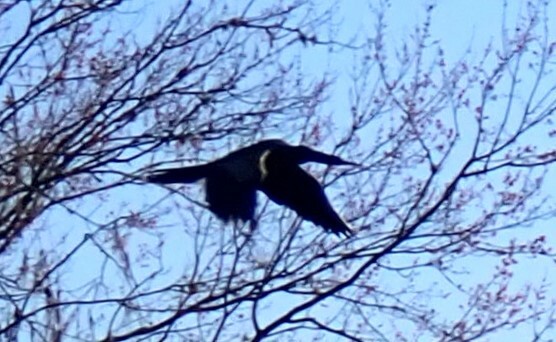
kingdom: Animalia
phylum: Chordata
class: Aves
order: Suliformes
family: Anhingidae
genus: Anhinga
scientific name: Anhinga anhinga
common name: Anhinga
